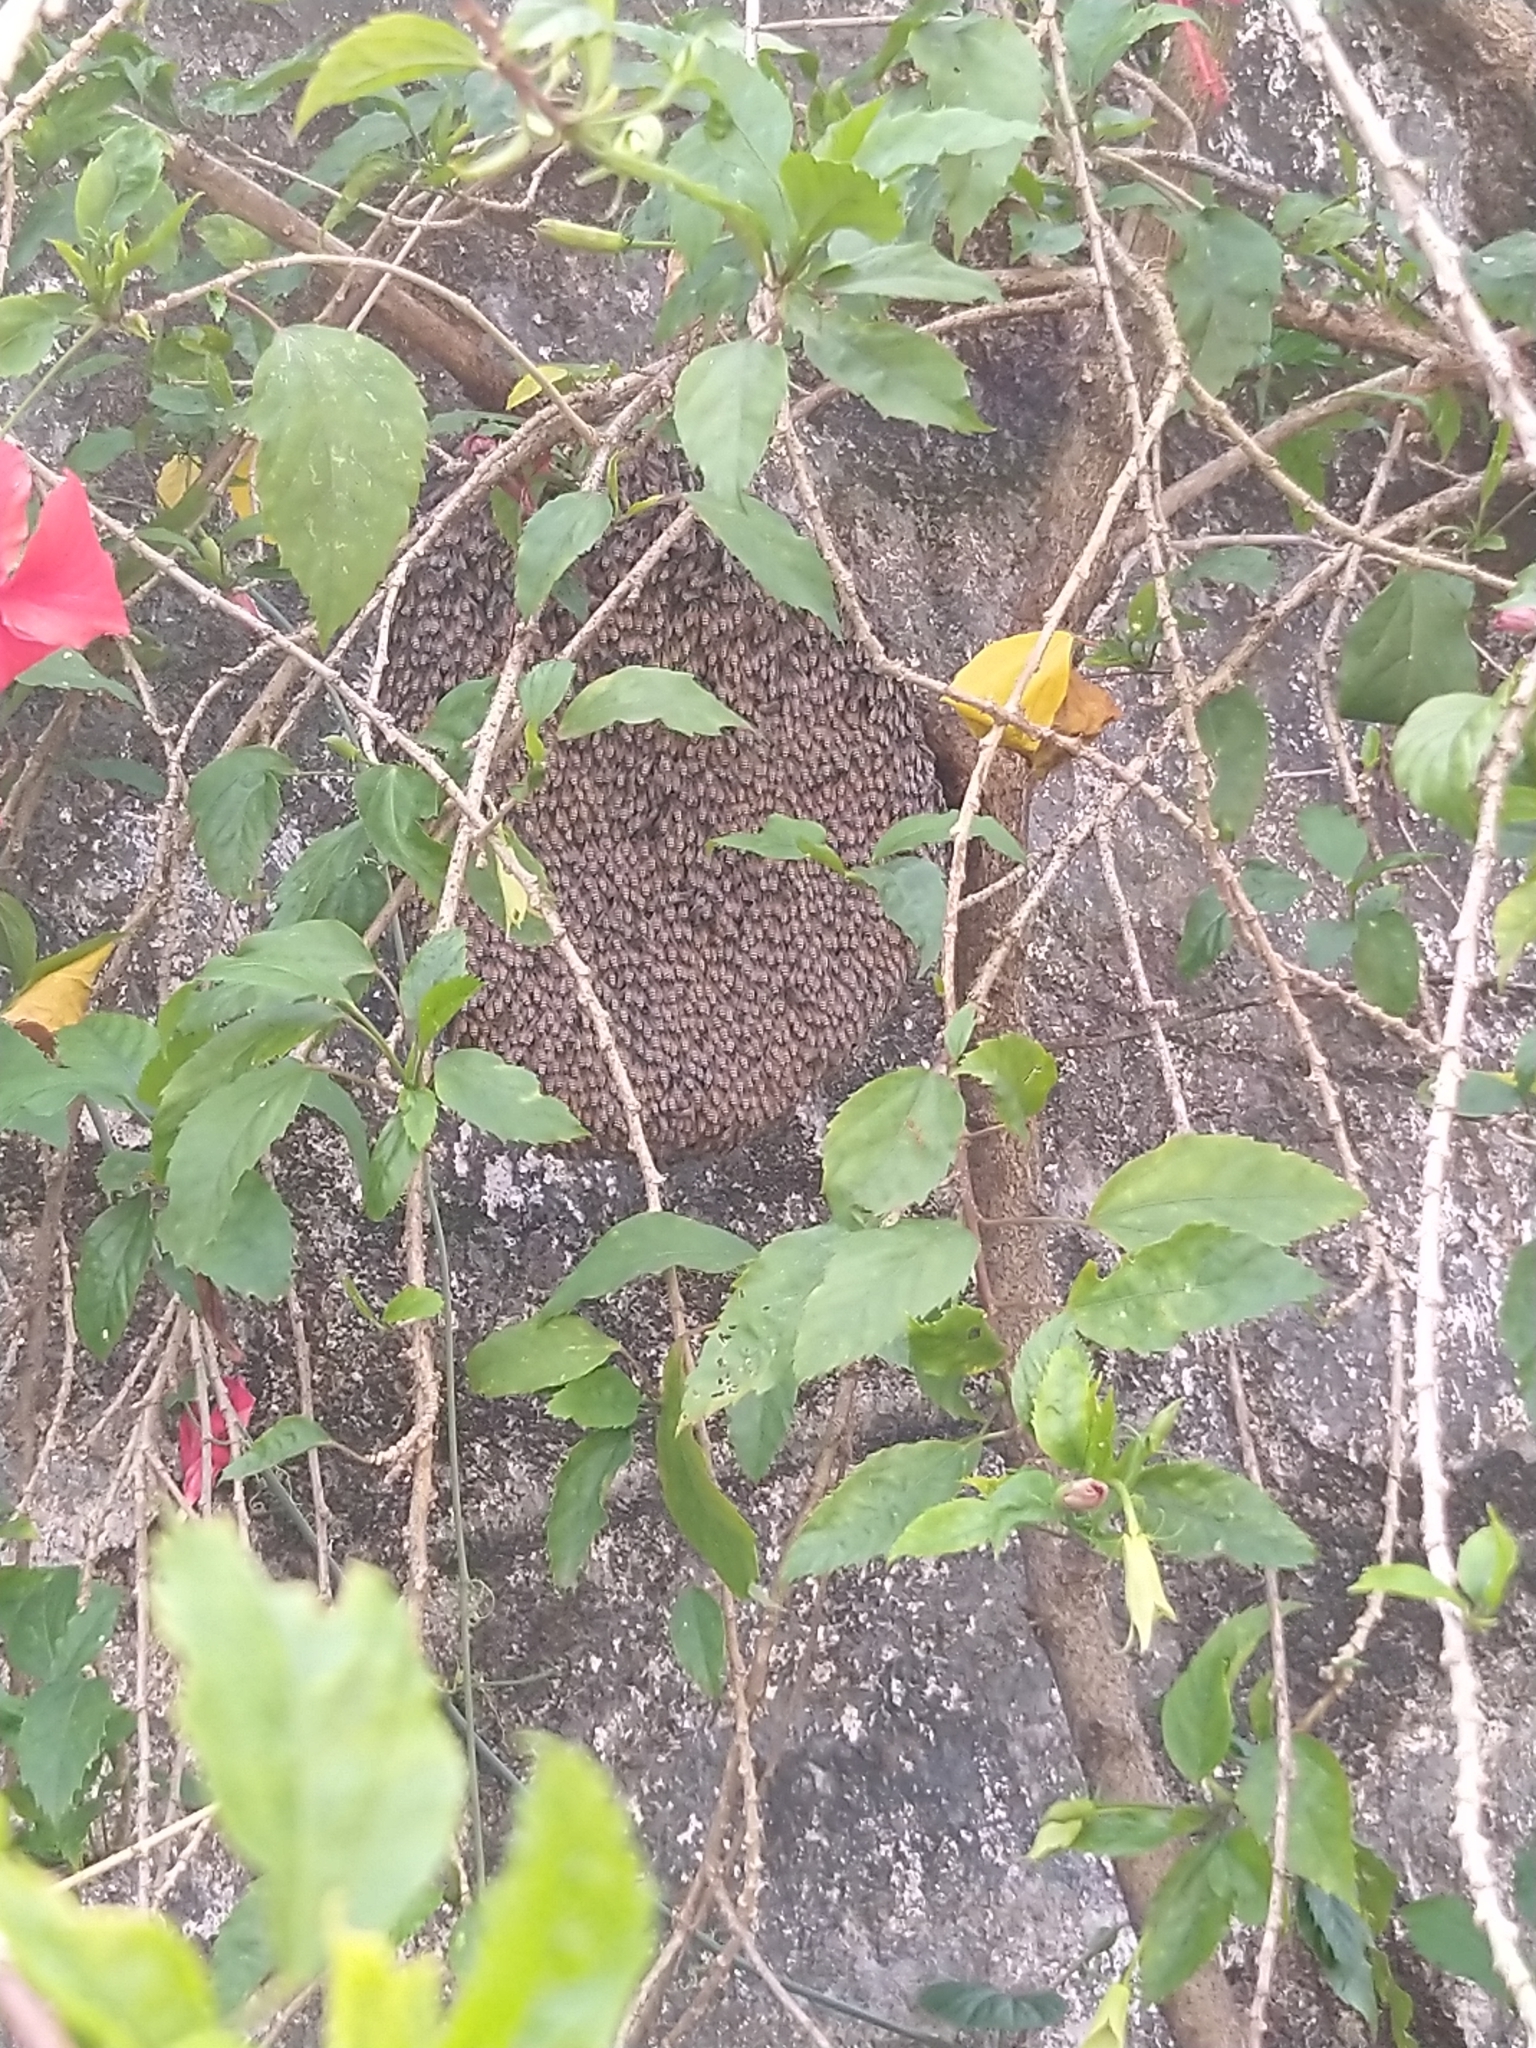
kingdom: Animalia
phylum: Arthropoda
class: Insecta
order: Hymenoptera
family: Apidae
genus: Apis
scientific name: Apis florea
